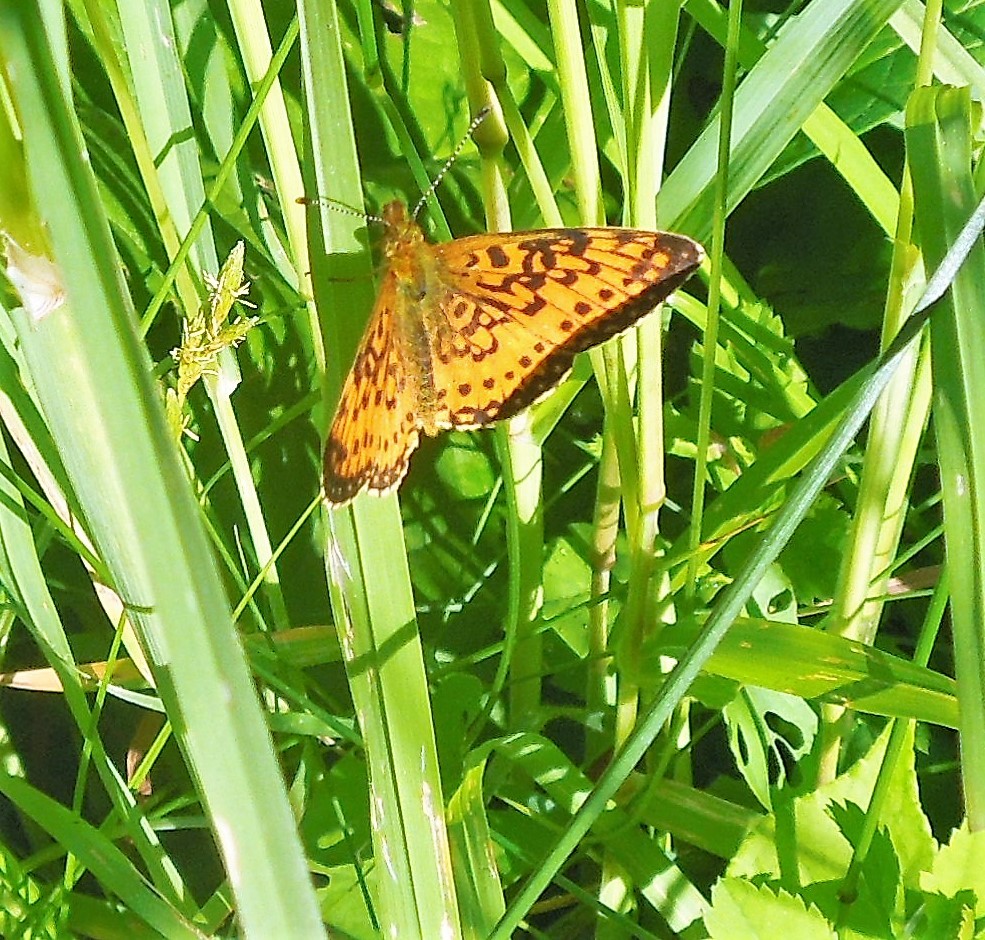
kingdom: Animalia
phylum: Arthropoda
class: Insecta
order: Lepidoptera
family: Nymphalidae
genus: Boloria
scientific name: Boloria
